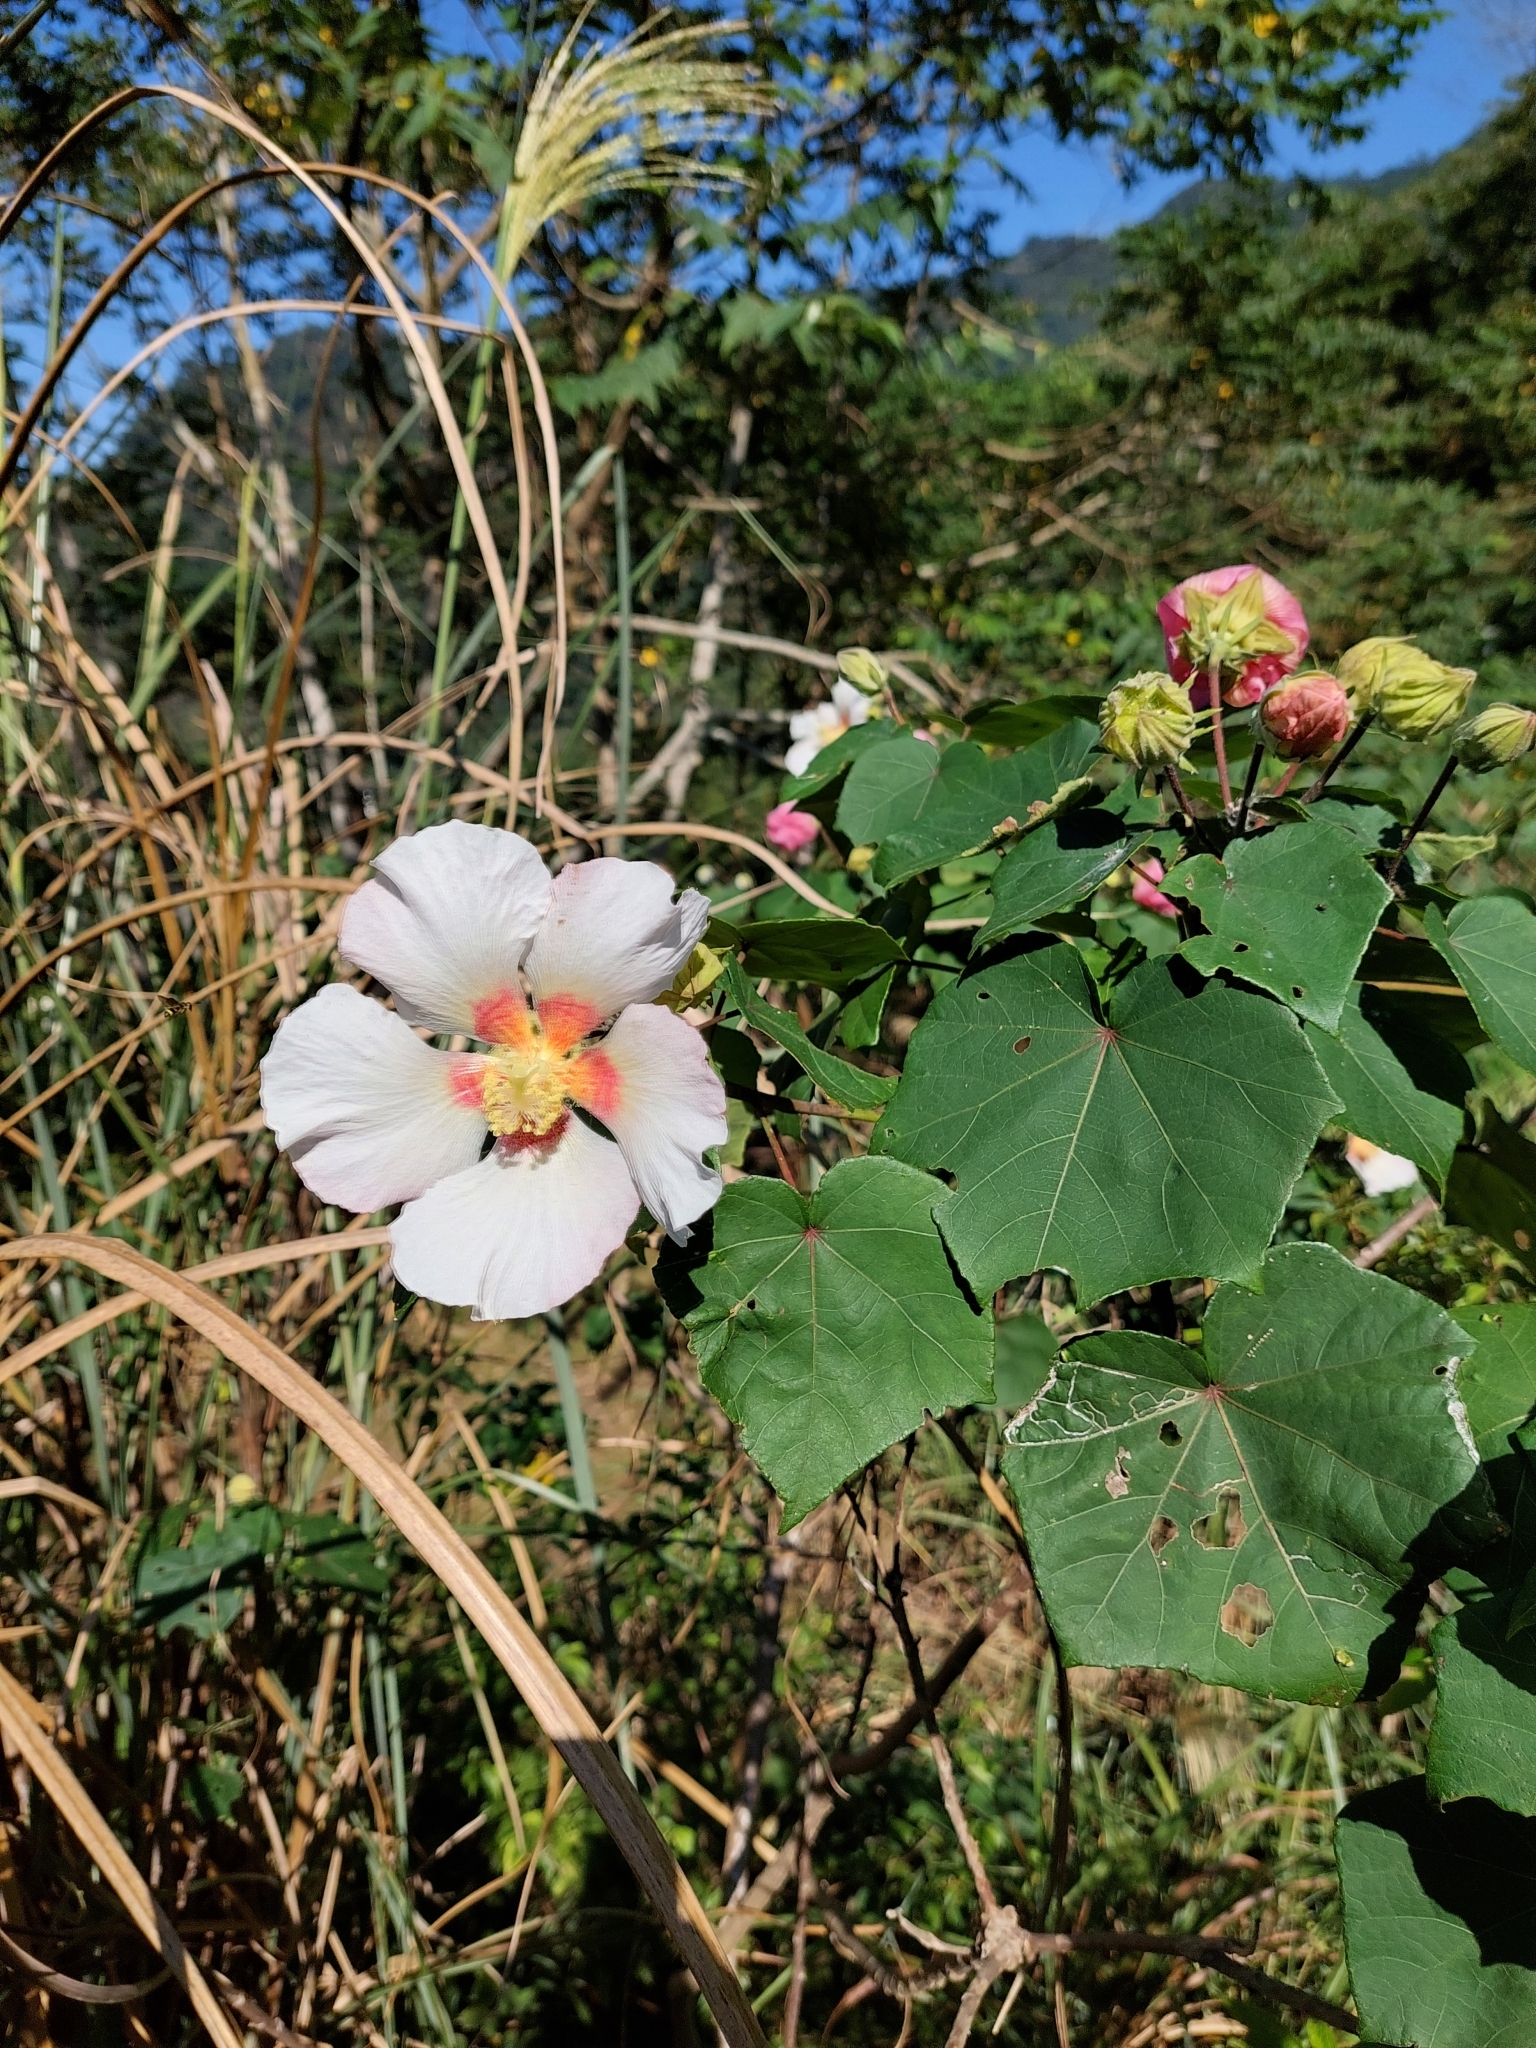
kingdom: Plantae
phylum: Tracheophyta
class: Magnoliopsida
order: Malvales
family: Malvaceae
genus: Hibiscus
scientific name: Hibiscus taiwanensis
